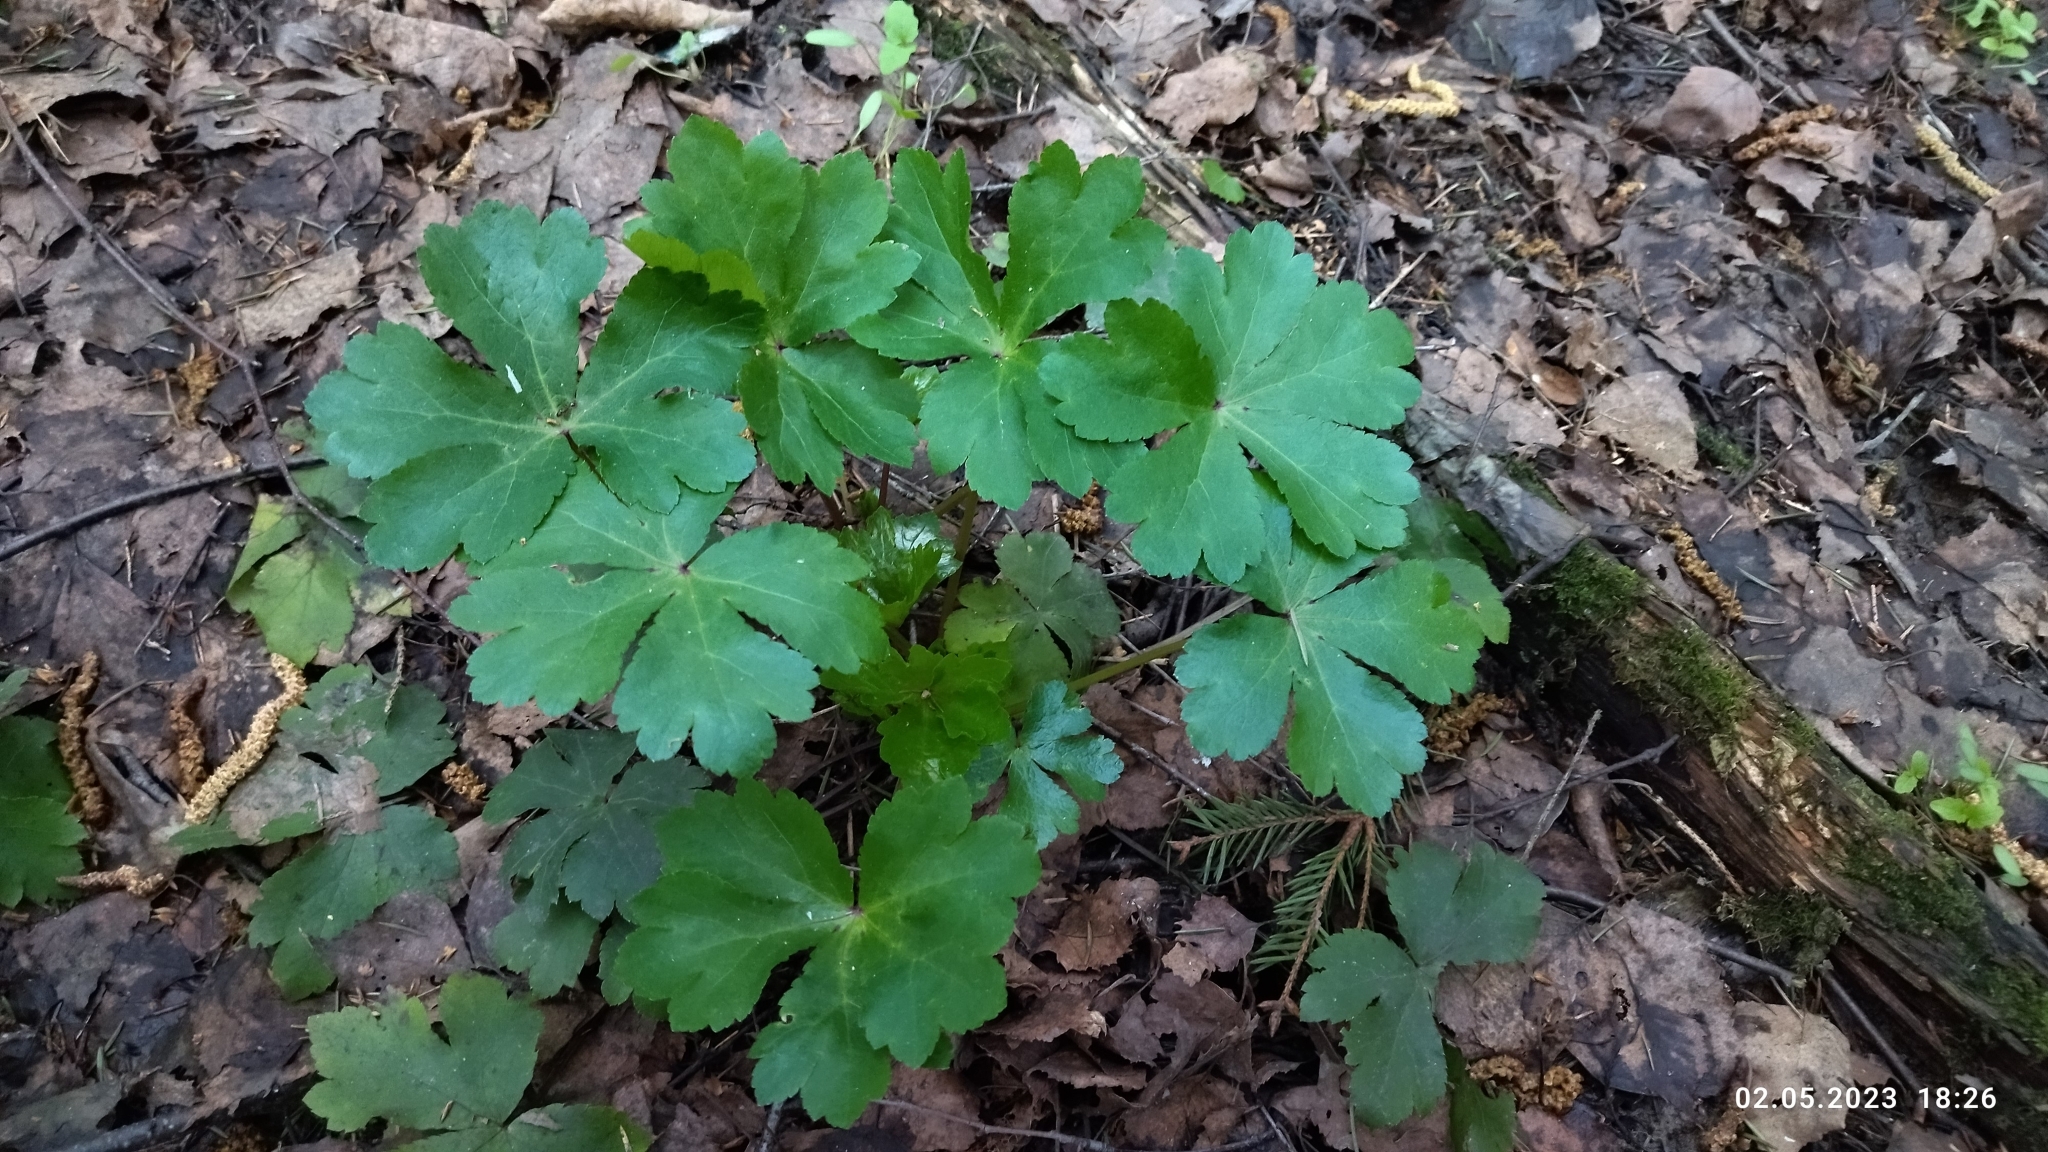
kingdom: Plantae
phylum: Tracheophyta
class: Magnoliopsida
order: Apiales
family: Apiaceae
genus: Sanicula
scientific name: Sanicula europaea
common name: Sanicle
